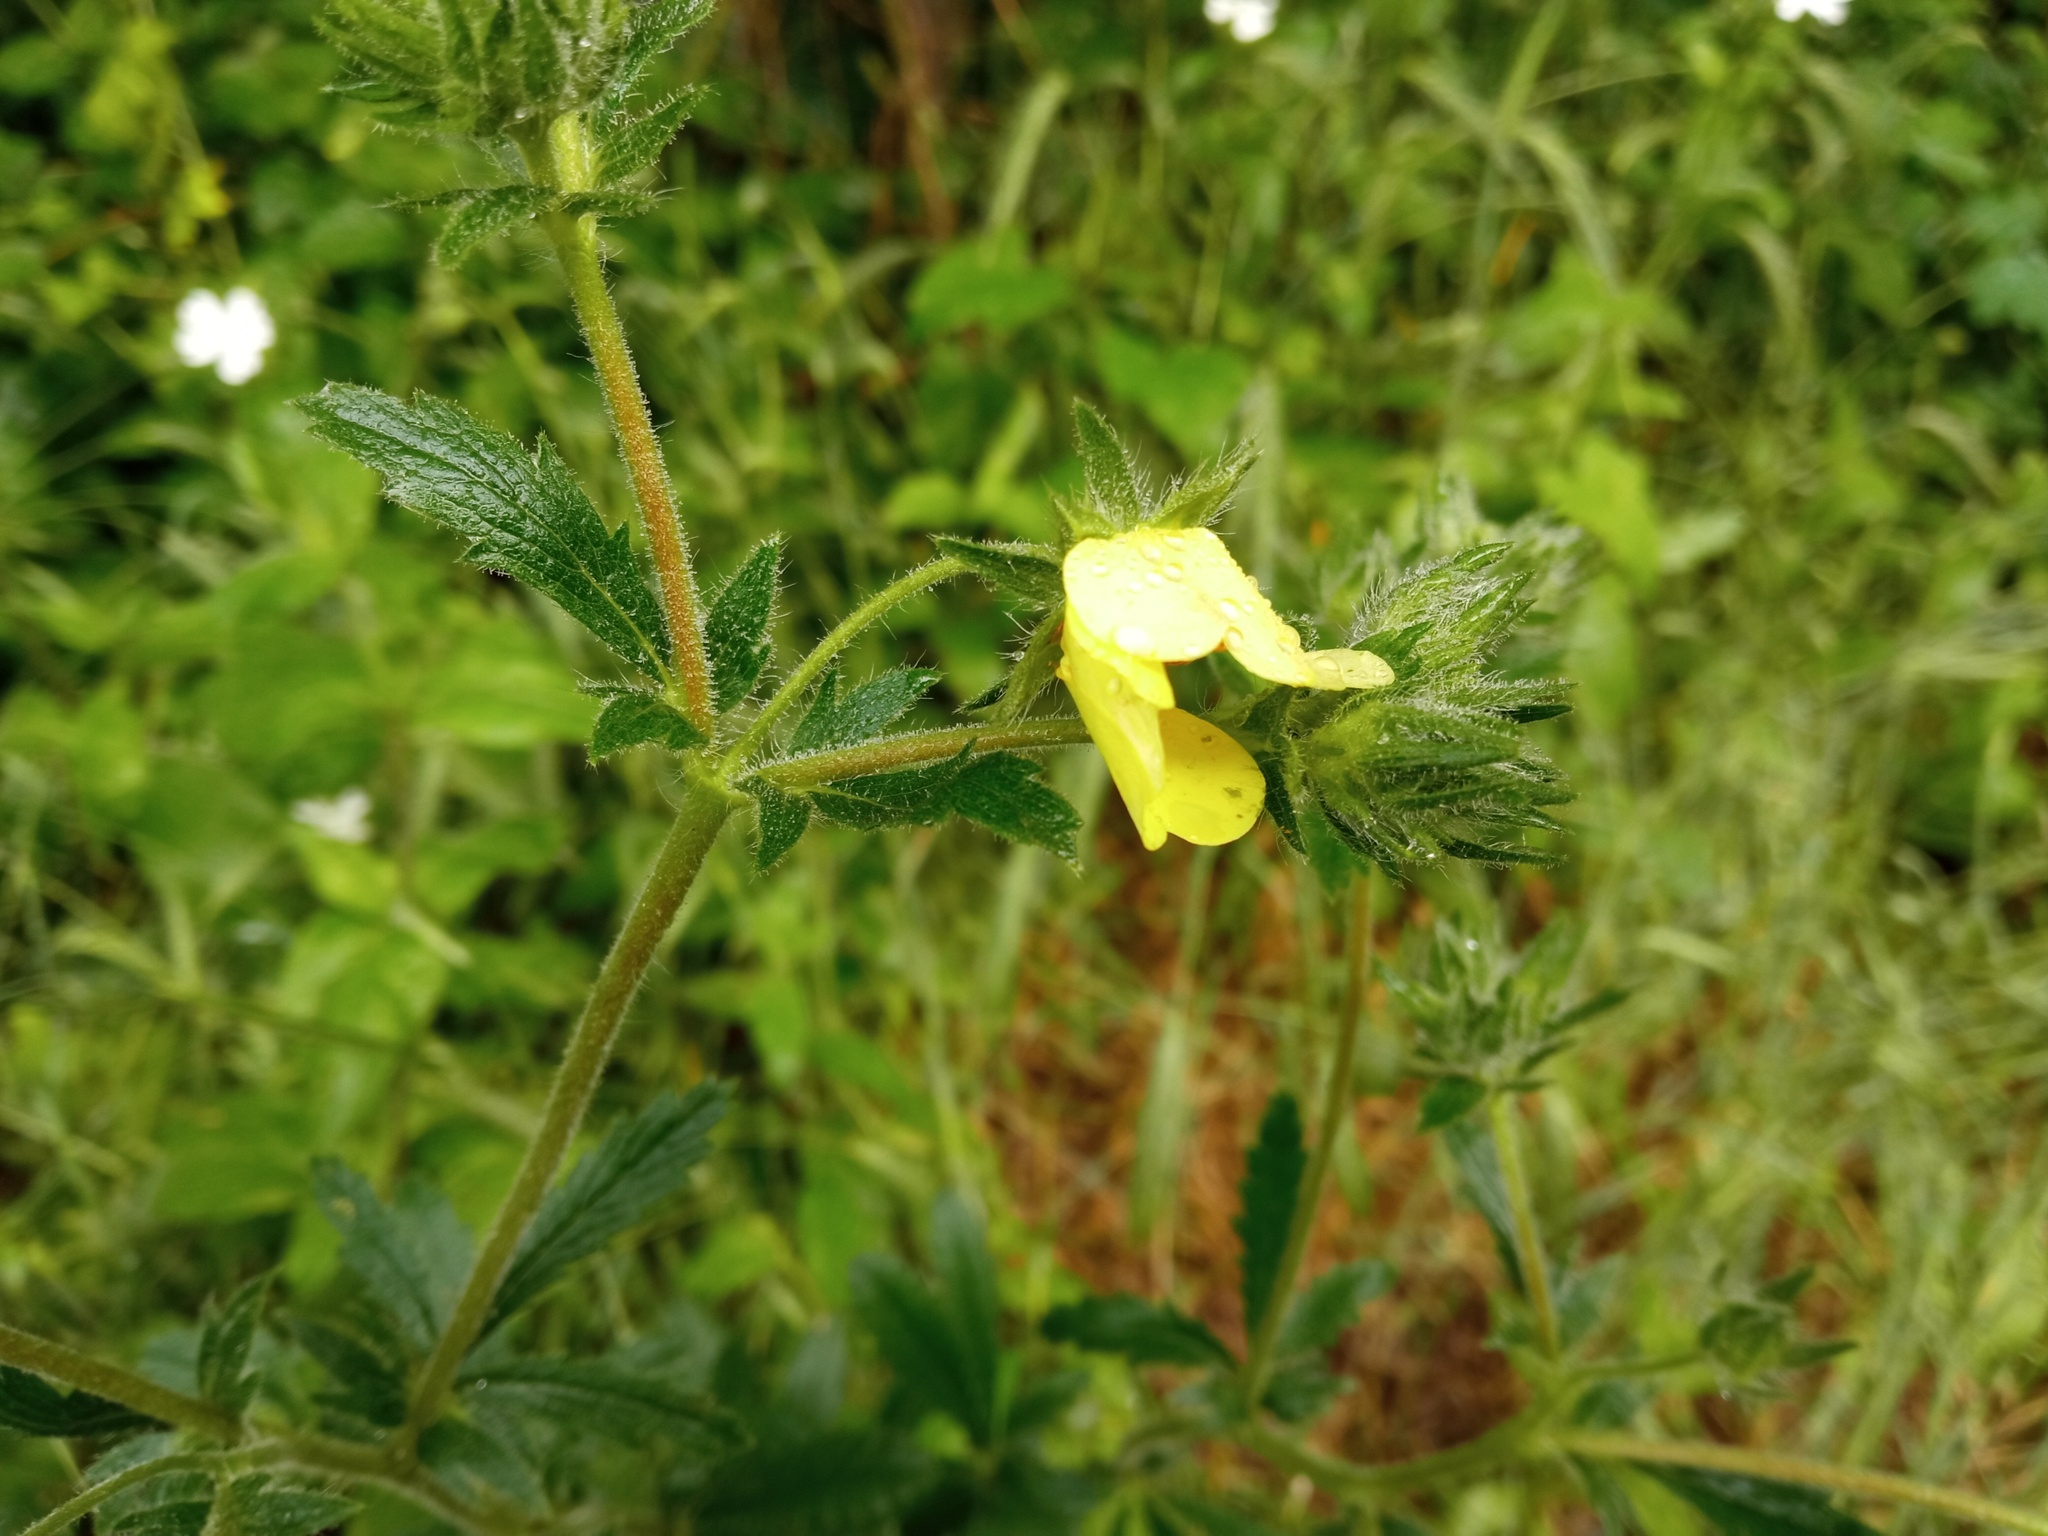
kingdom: Plantae
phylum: Tracheophyta
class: Magnoliopsida
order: Rosales
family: Rosaceae
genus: Potentilla
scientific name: Potentilla recta
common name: Sulphur cinquefoil
